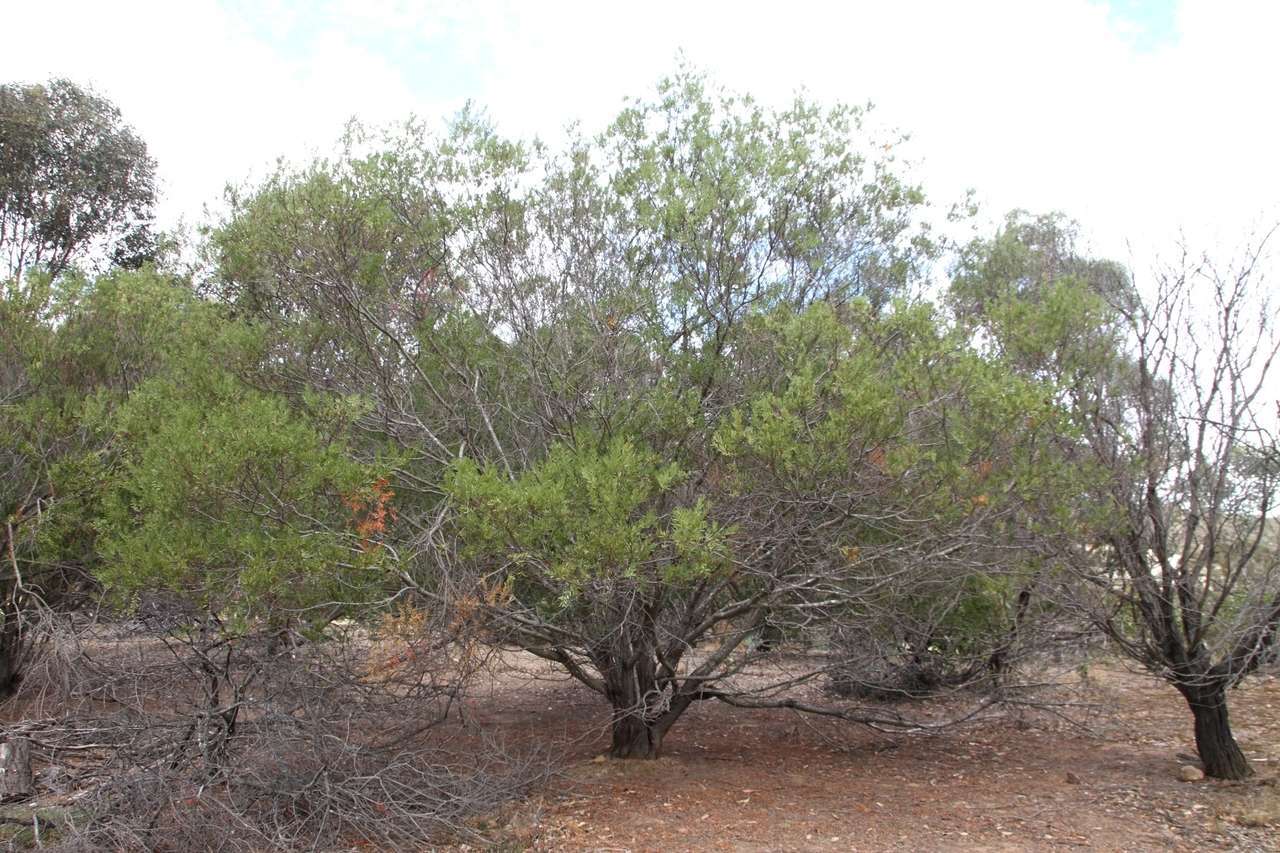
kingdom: Plantae
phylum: Tracheophyta
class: Magnoliopsida
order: Fabales
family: Fabaceae
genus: Acacia
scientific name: Acacia rostriformis
